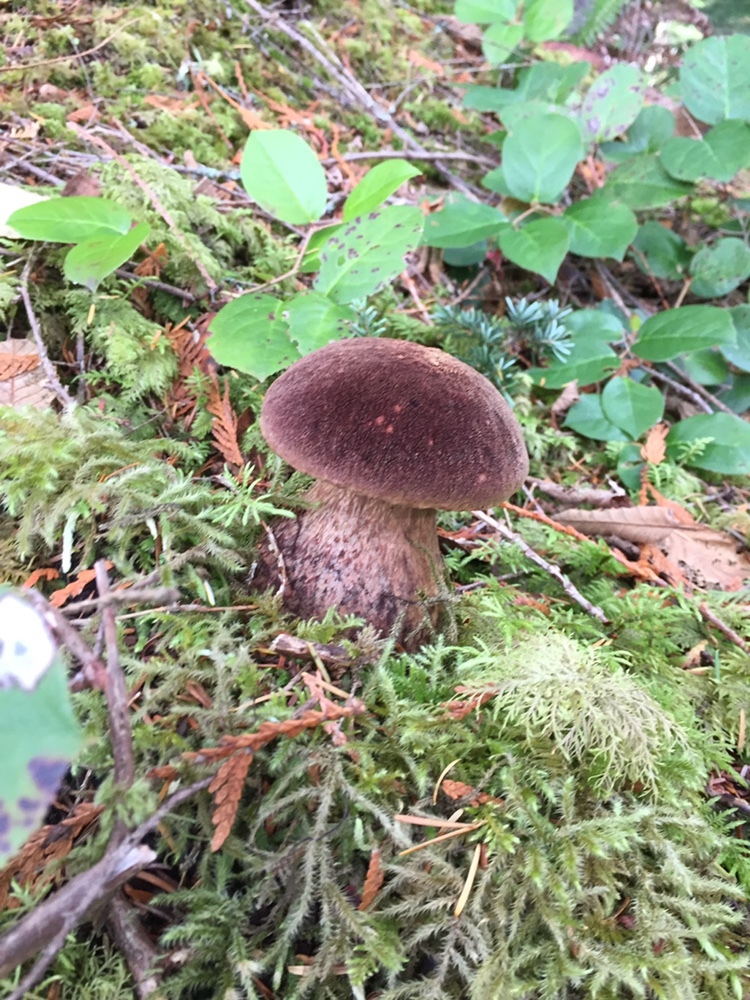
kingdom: Fungi
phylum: Basidiomycota
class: Agaricomycetes
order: Boletales
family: Boletaceae
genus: Aureoboletus
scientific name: Aureoboletus mirabilis
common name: Admirable bolete
